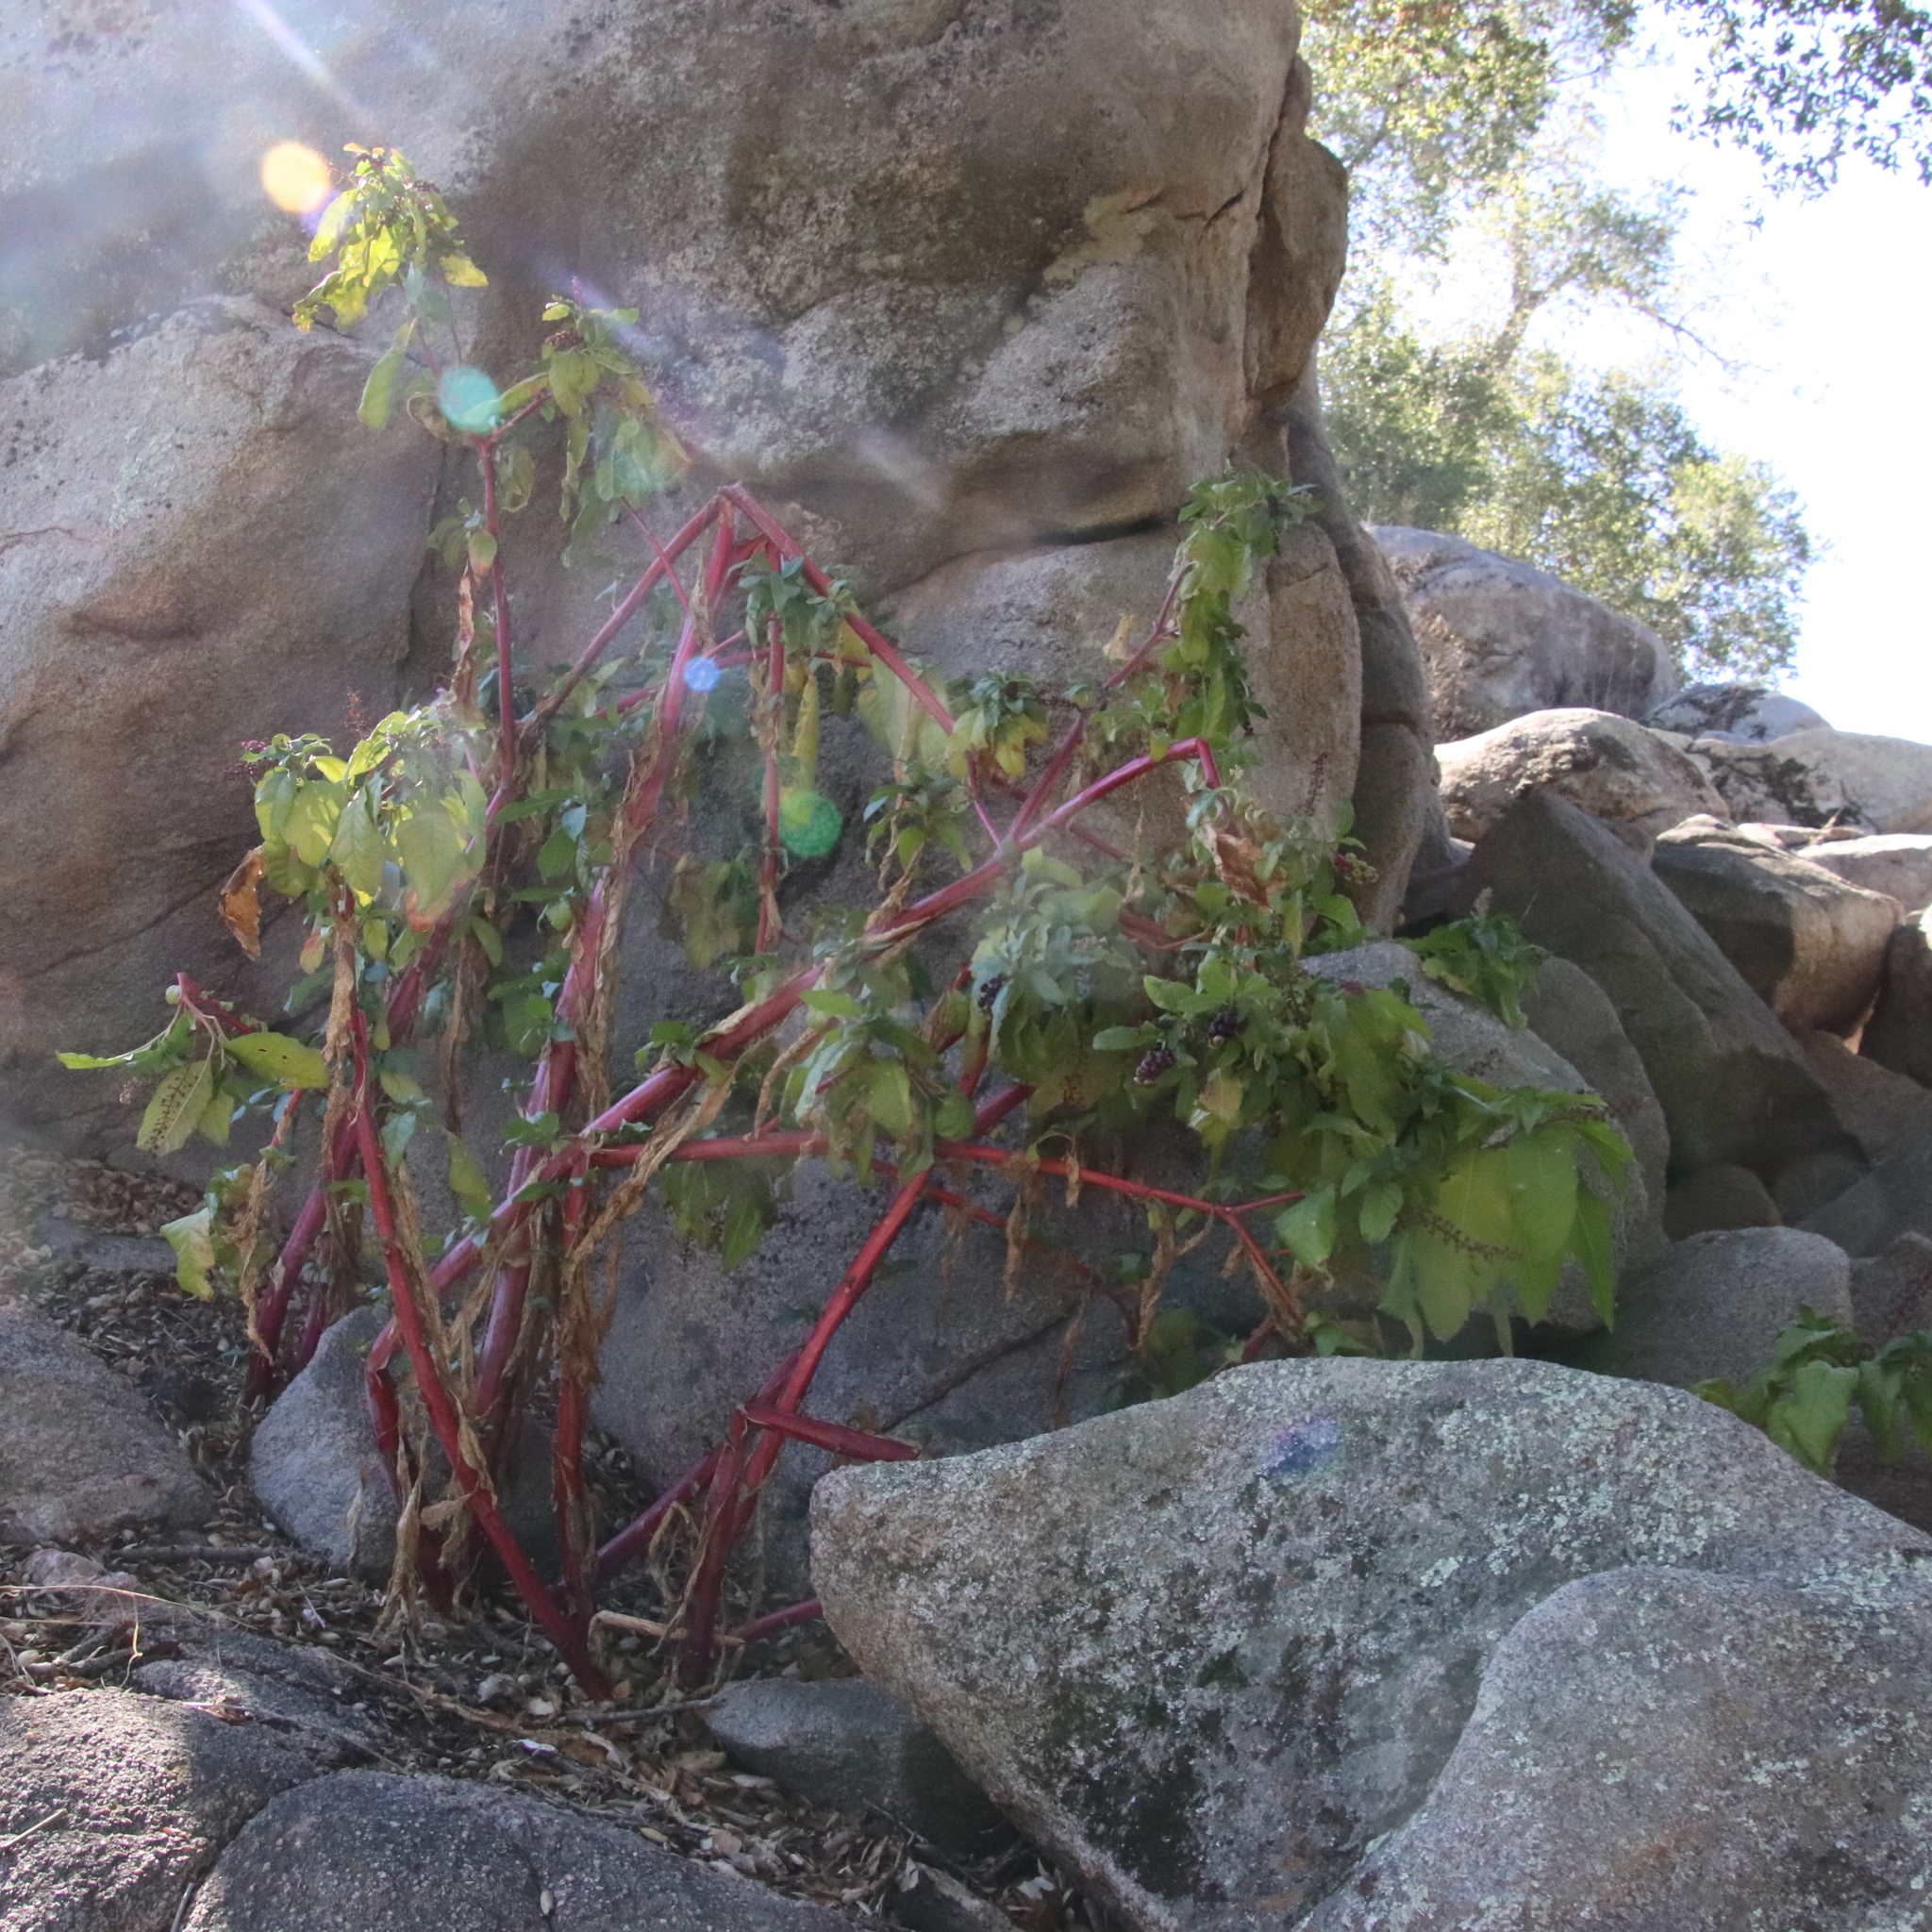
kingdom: Plantae
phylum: Tracheophyta
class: Magnoliopsida
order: Caryophyllales
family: Phytolaccaceae
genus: Phytolacca
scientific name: Phytolacca americana
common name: American pokeweed
